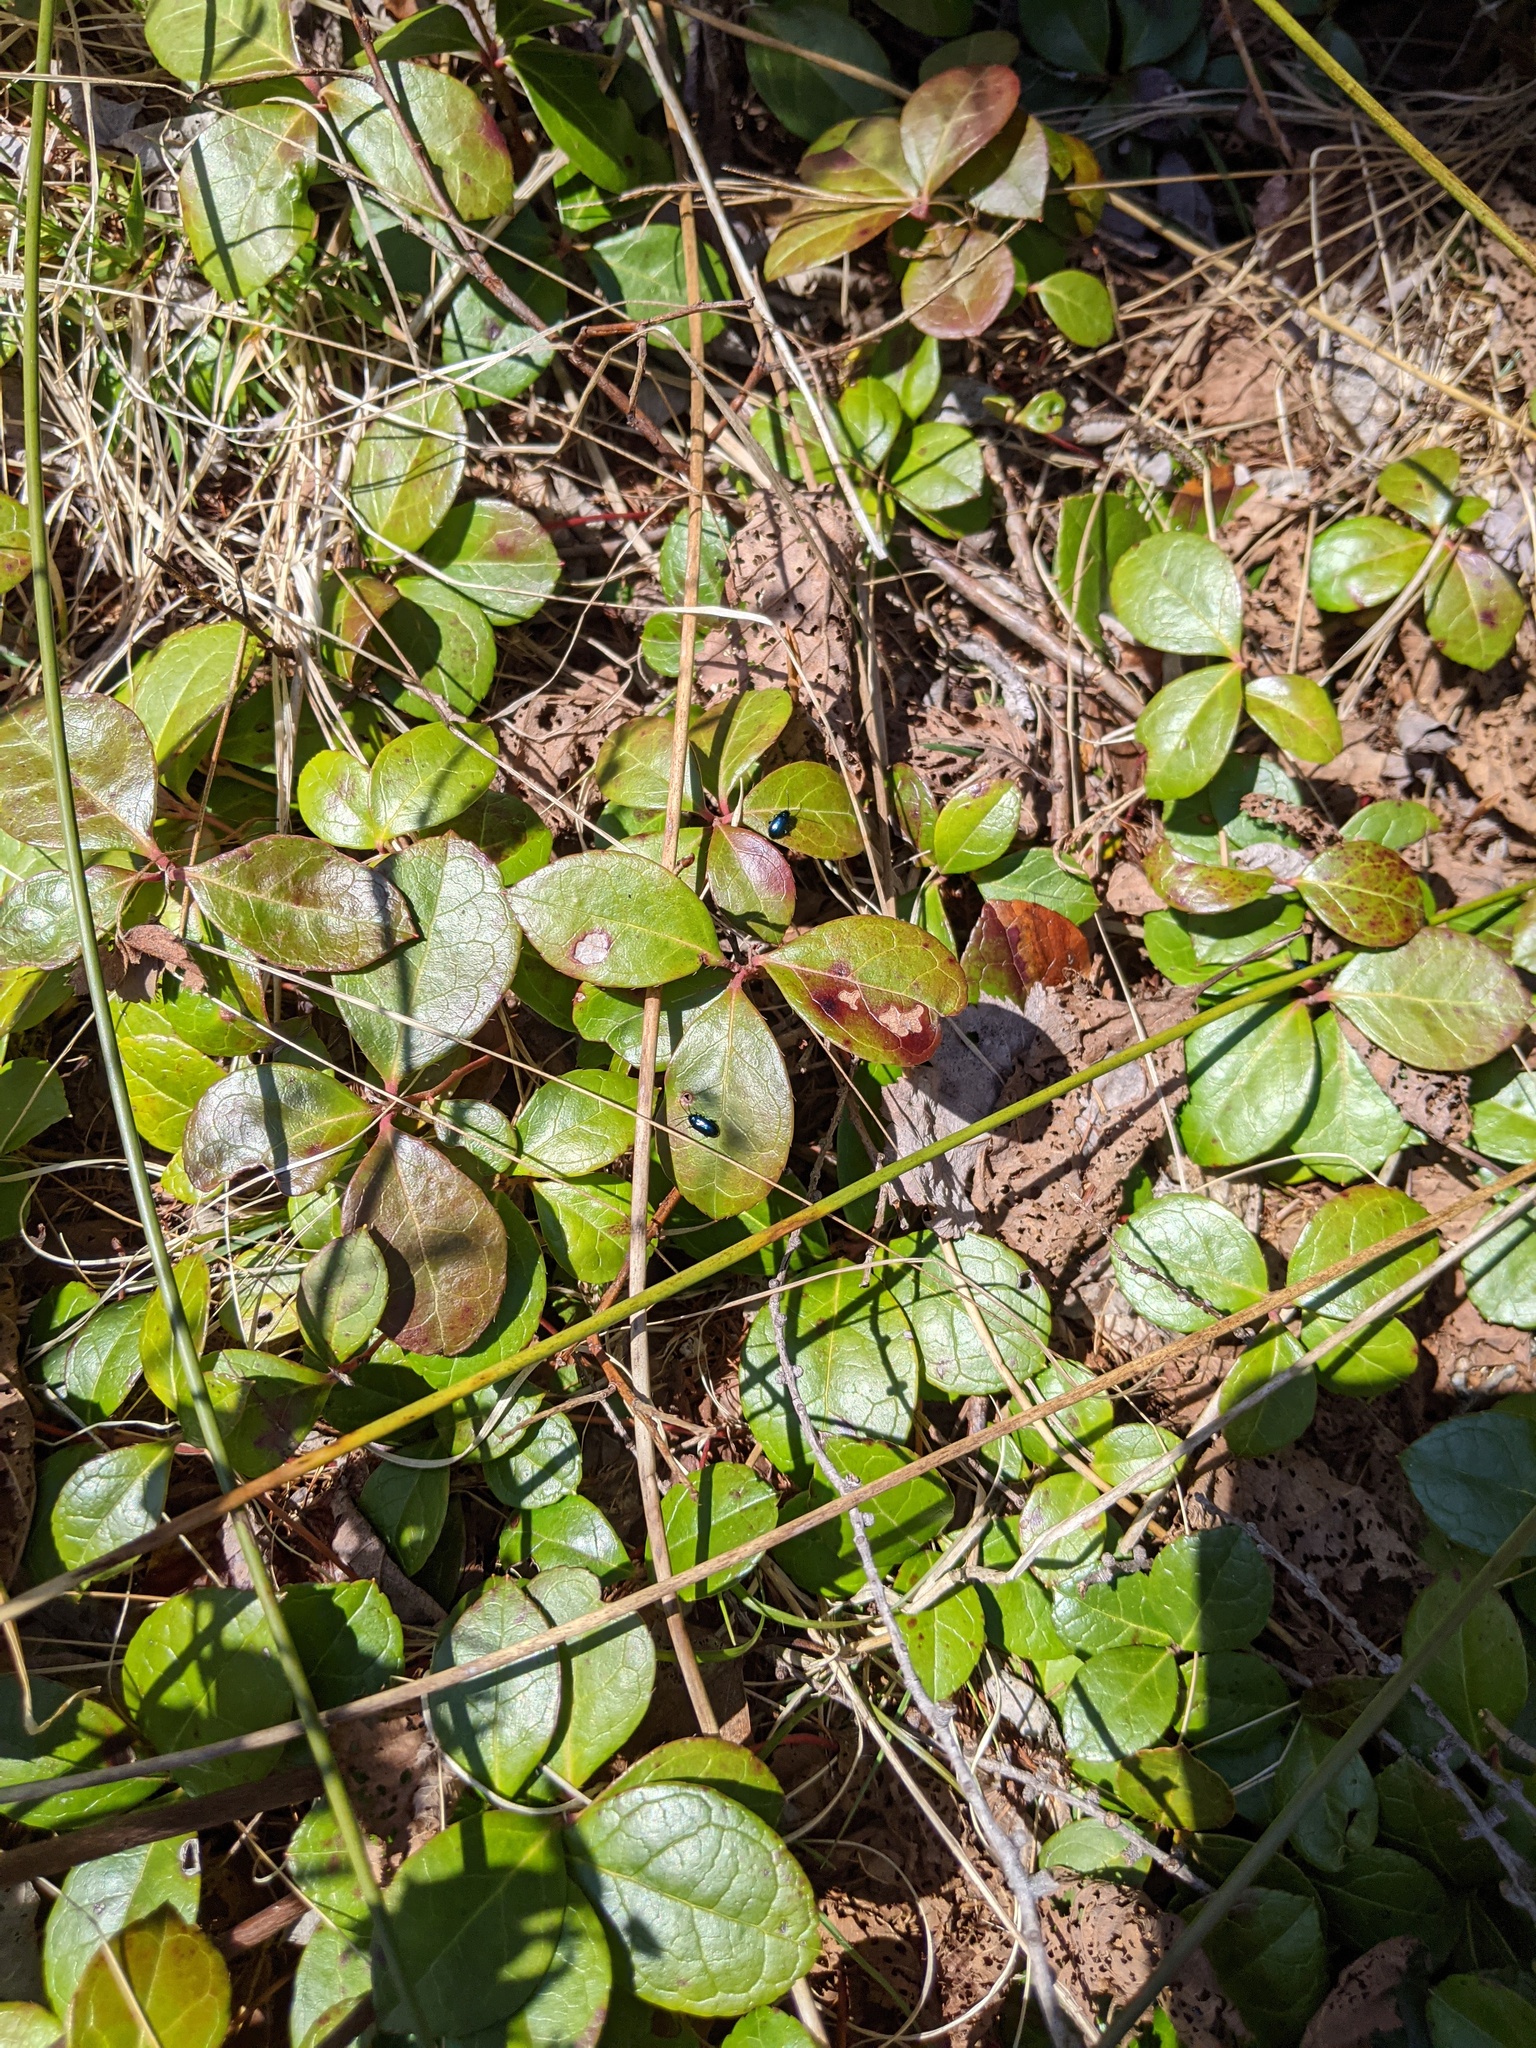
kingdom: Plantae
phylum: Tracheophyta
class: Magnoliopsida
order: Ericales
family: Ericaceae
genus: Gaultheria
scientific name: Gaultheria procumbens
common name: Checkerberry
